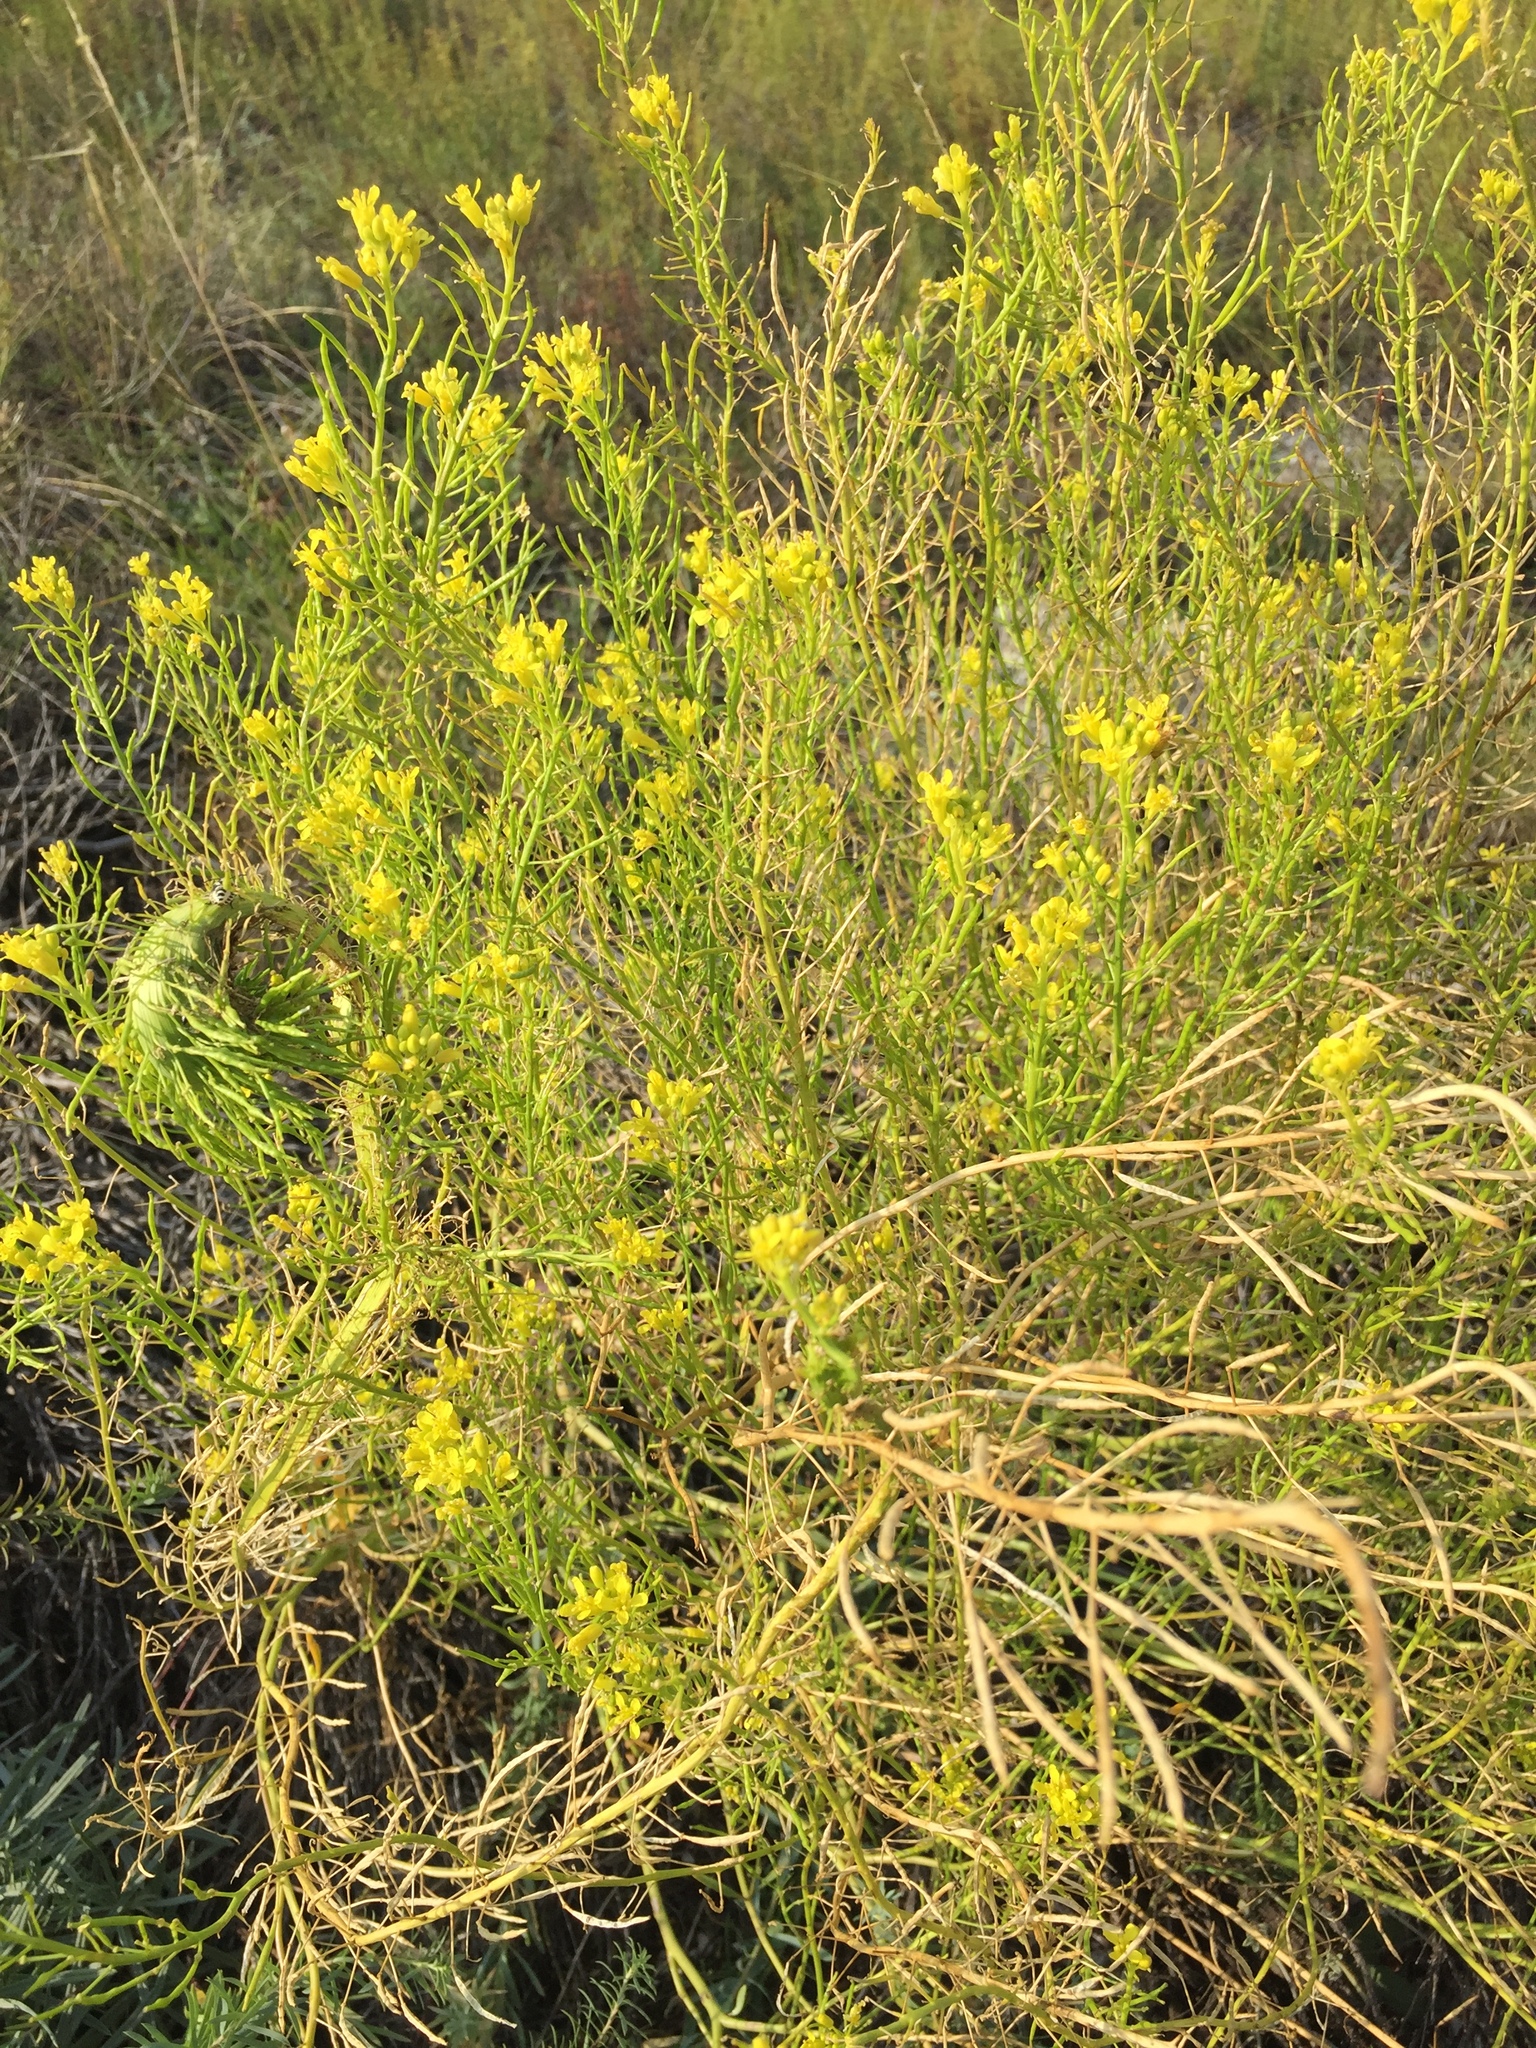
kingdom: Plantae
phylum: Tracheophyta
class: Magnoliopsida
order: Brassicales
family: Brassicaceae
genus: Sisymbrium
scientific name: Sisymbrium loeselii
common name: False london-rocket
